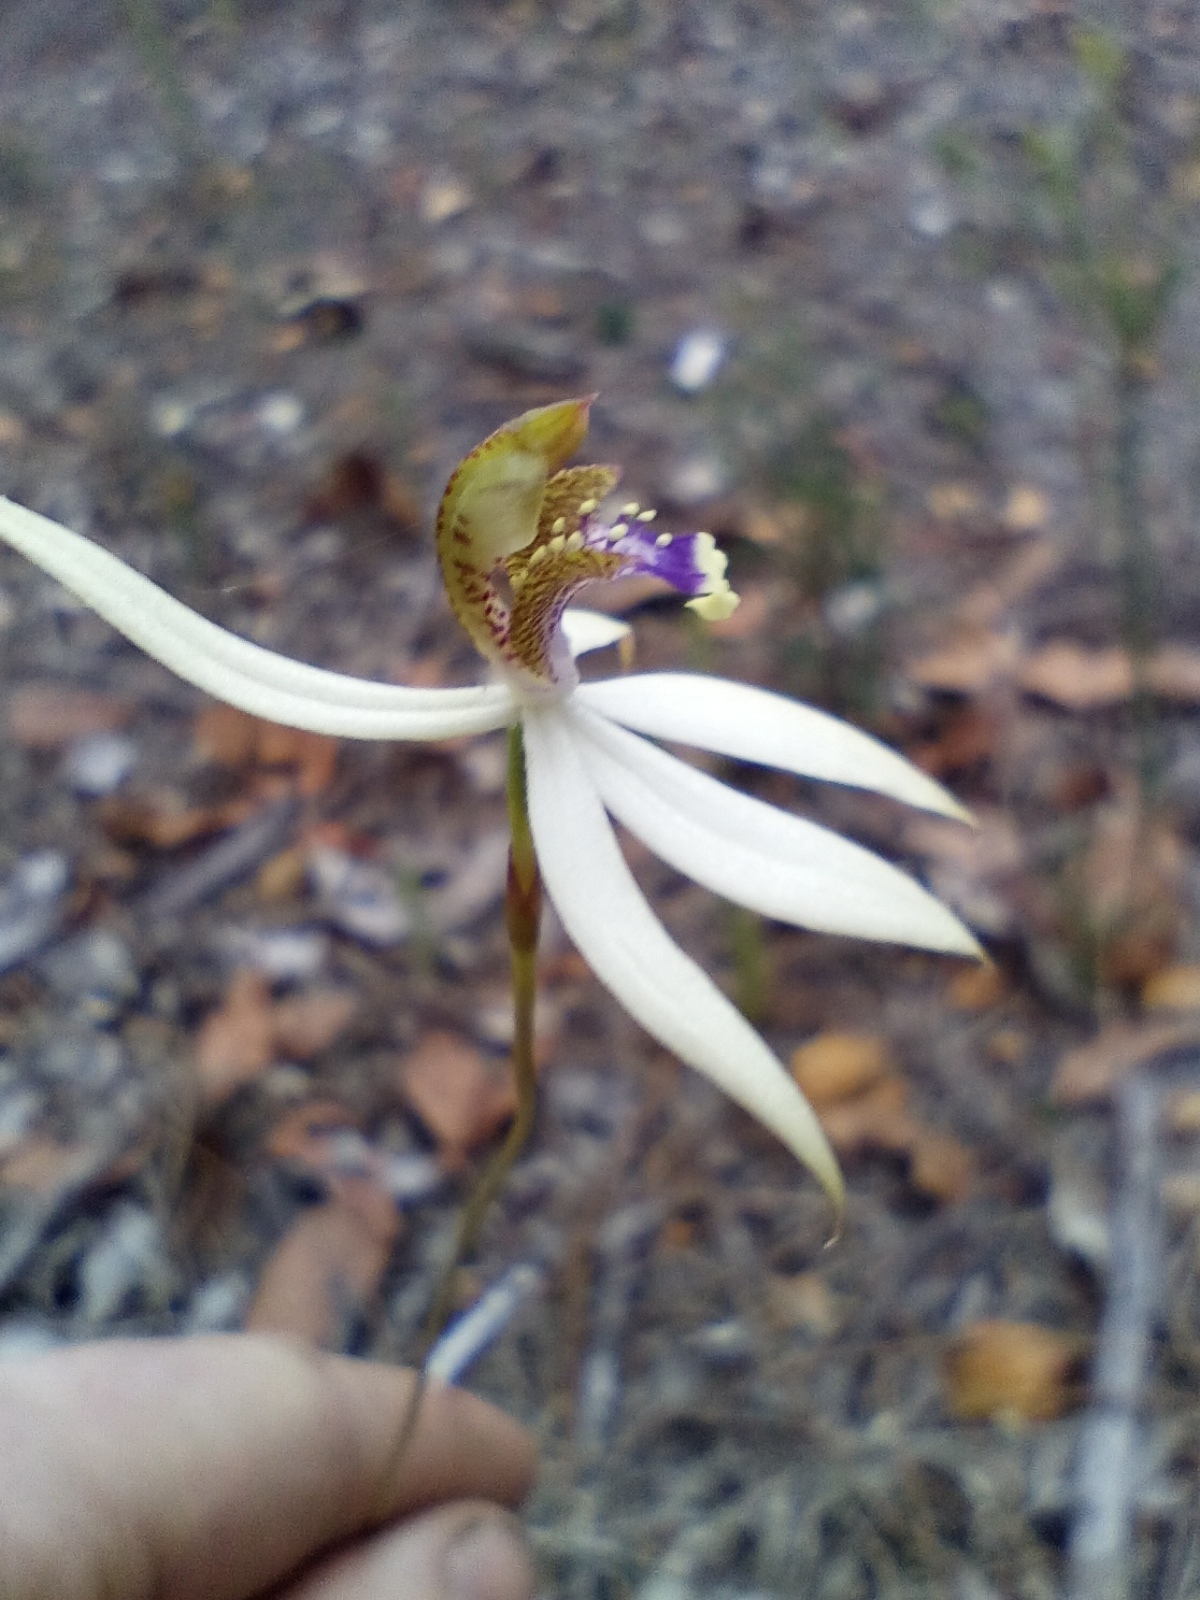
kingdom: Plantae
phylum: Tracheophyta
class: Liliopsida
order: Asparagales
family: Orchidaceae
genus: Praecoxanthus
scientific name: Praecoxanthus aphyllus
